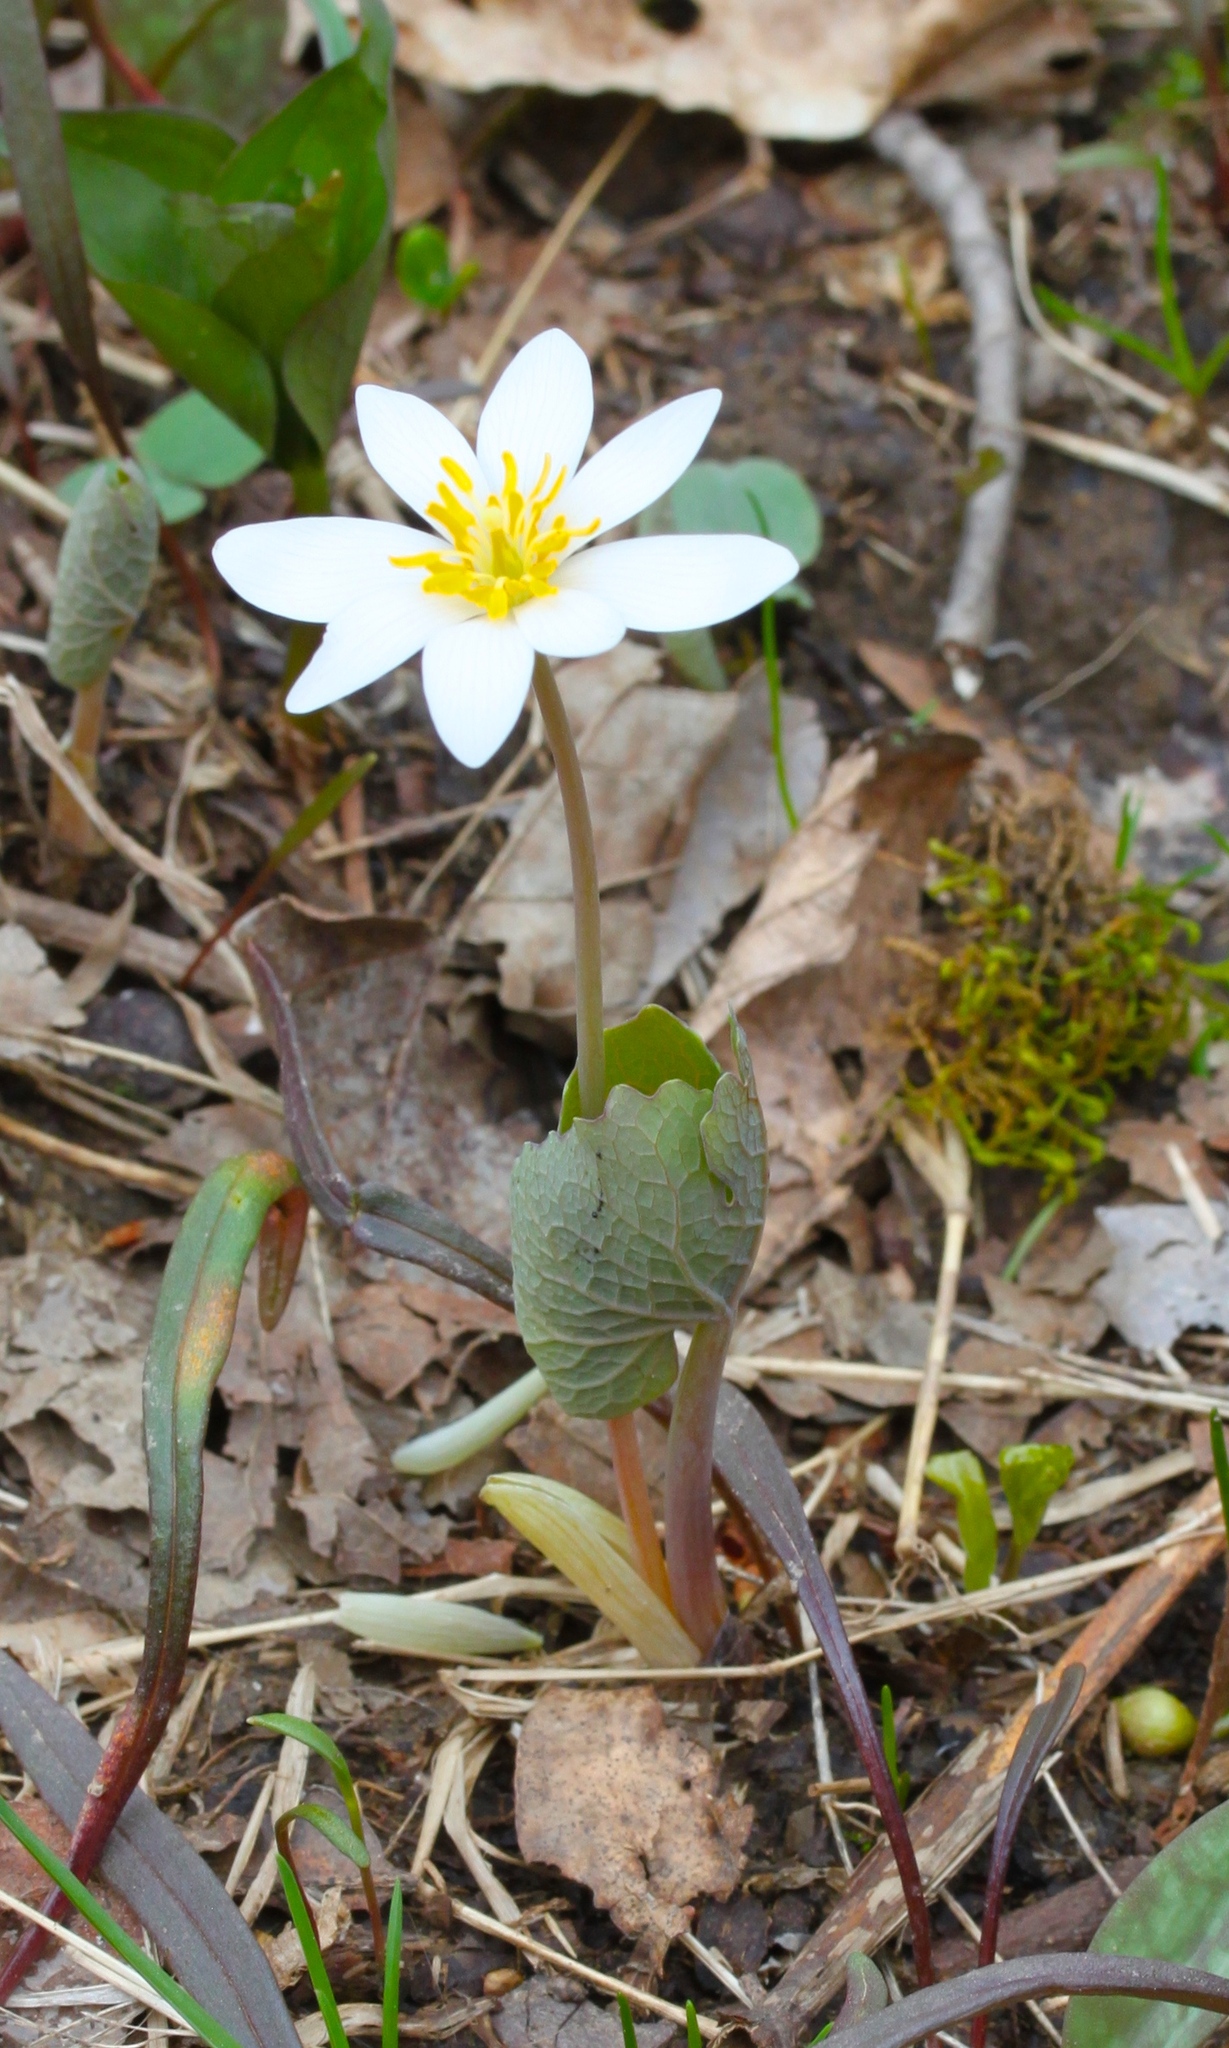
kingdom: Plantae
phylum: Tracheophyta
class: Magnoliopsida
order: Ranunculales
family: Papaveraceae
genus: Sanguinaria
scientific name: Sanguinaria canadensis
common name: Bloodroot
